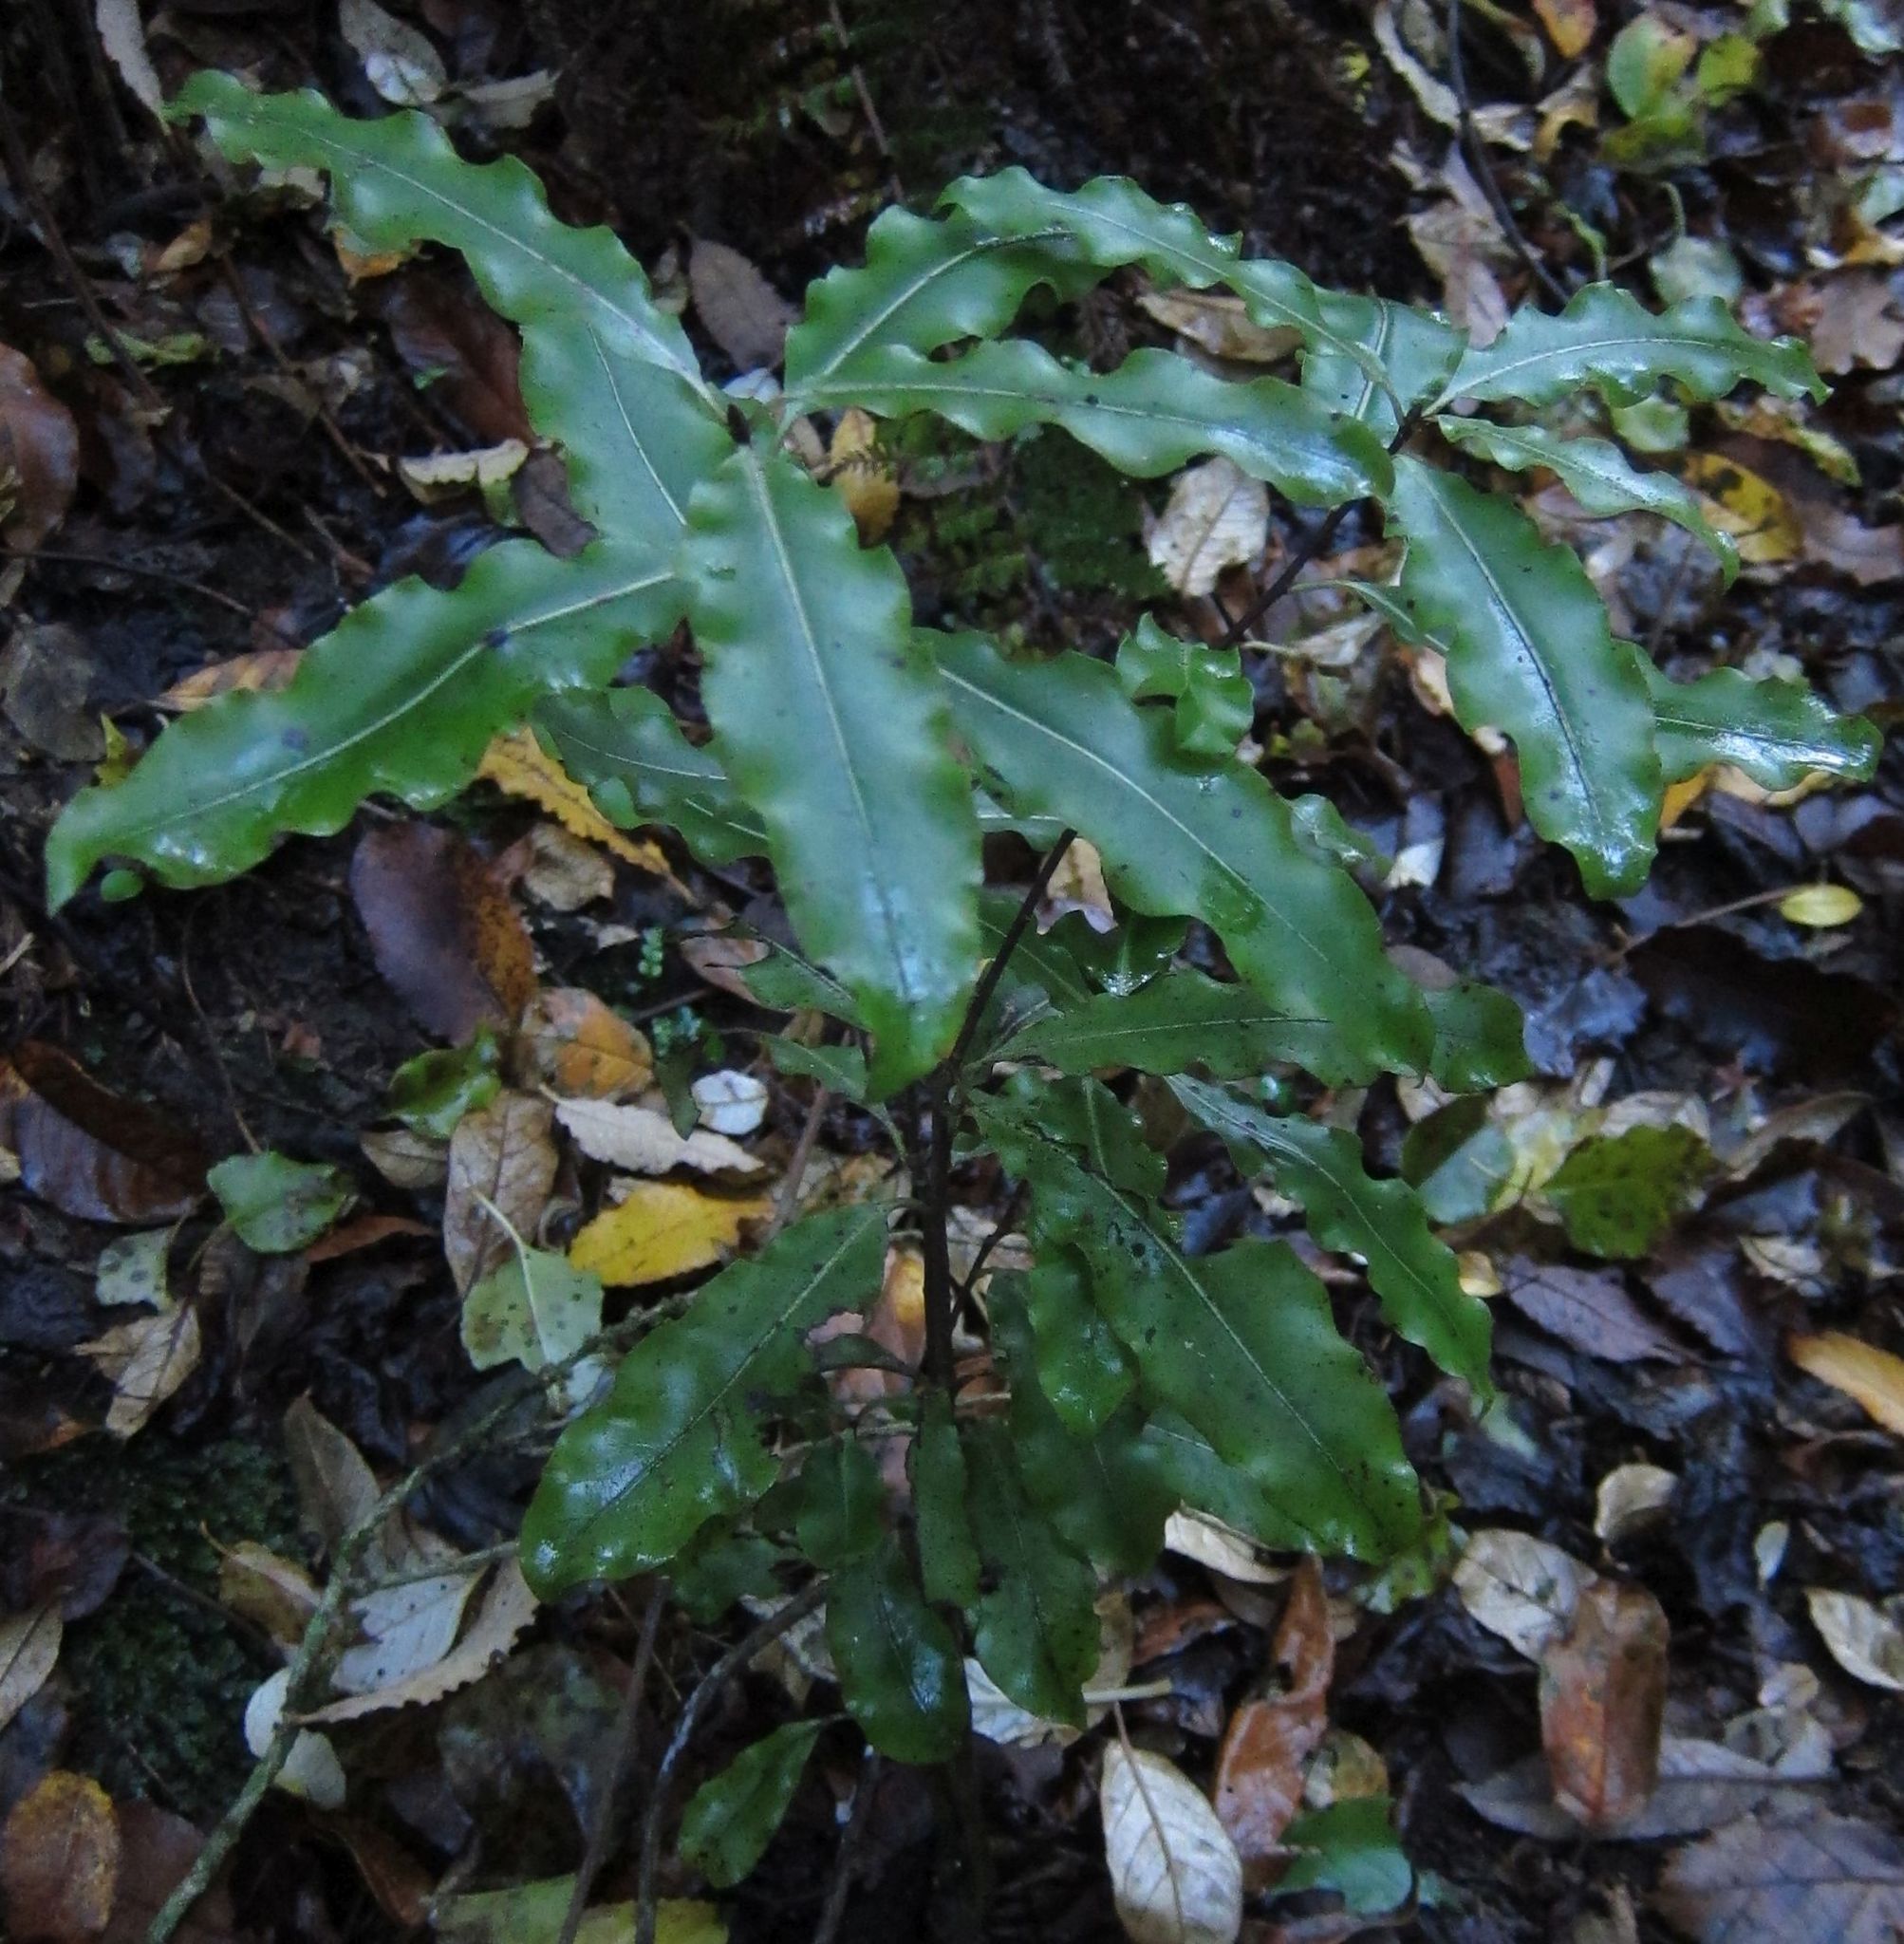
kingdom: Plantae
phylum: Tracheophyta
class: Magnoliopsida
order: Apiales
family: Pittosporaceae
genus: Pittosporum
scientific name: Pittosporum eugenioides
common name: Lemonwood
